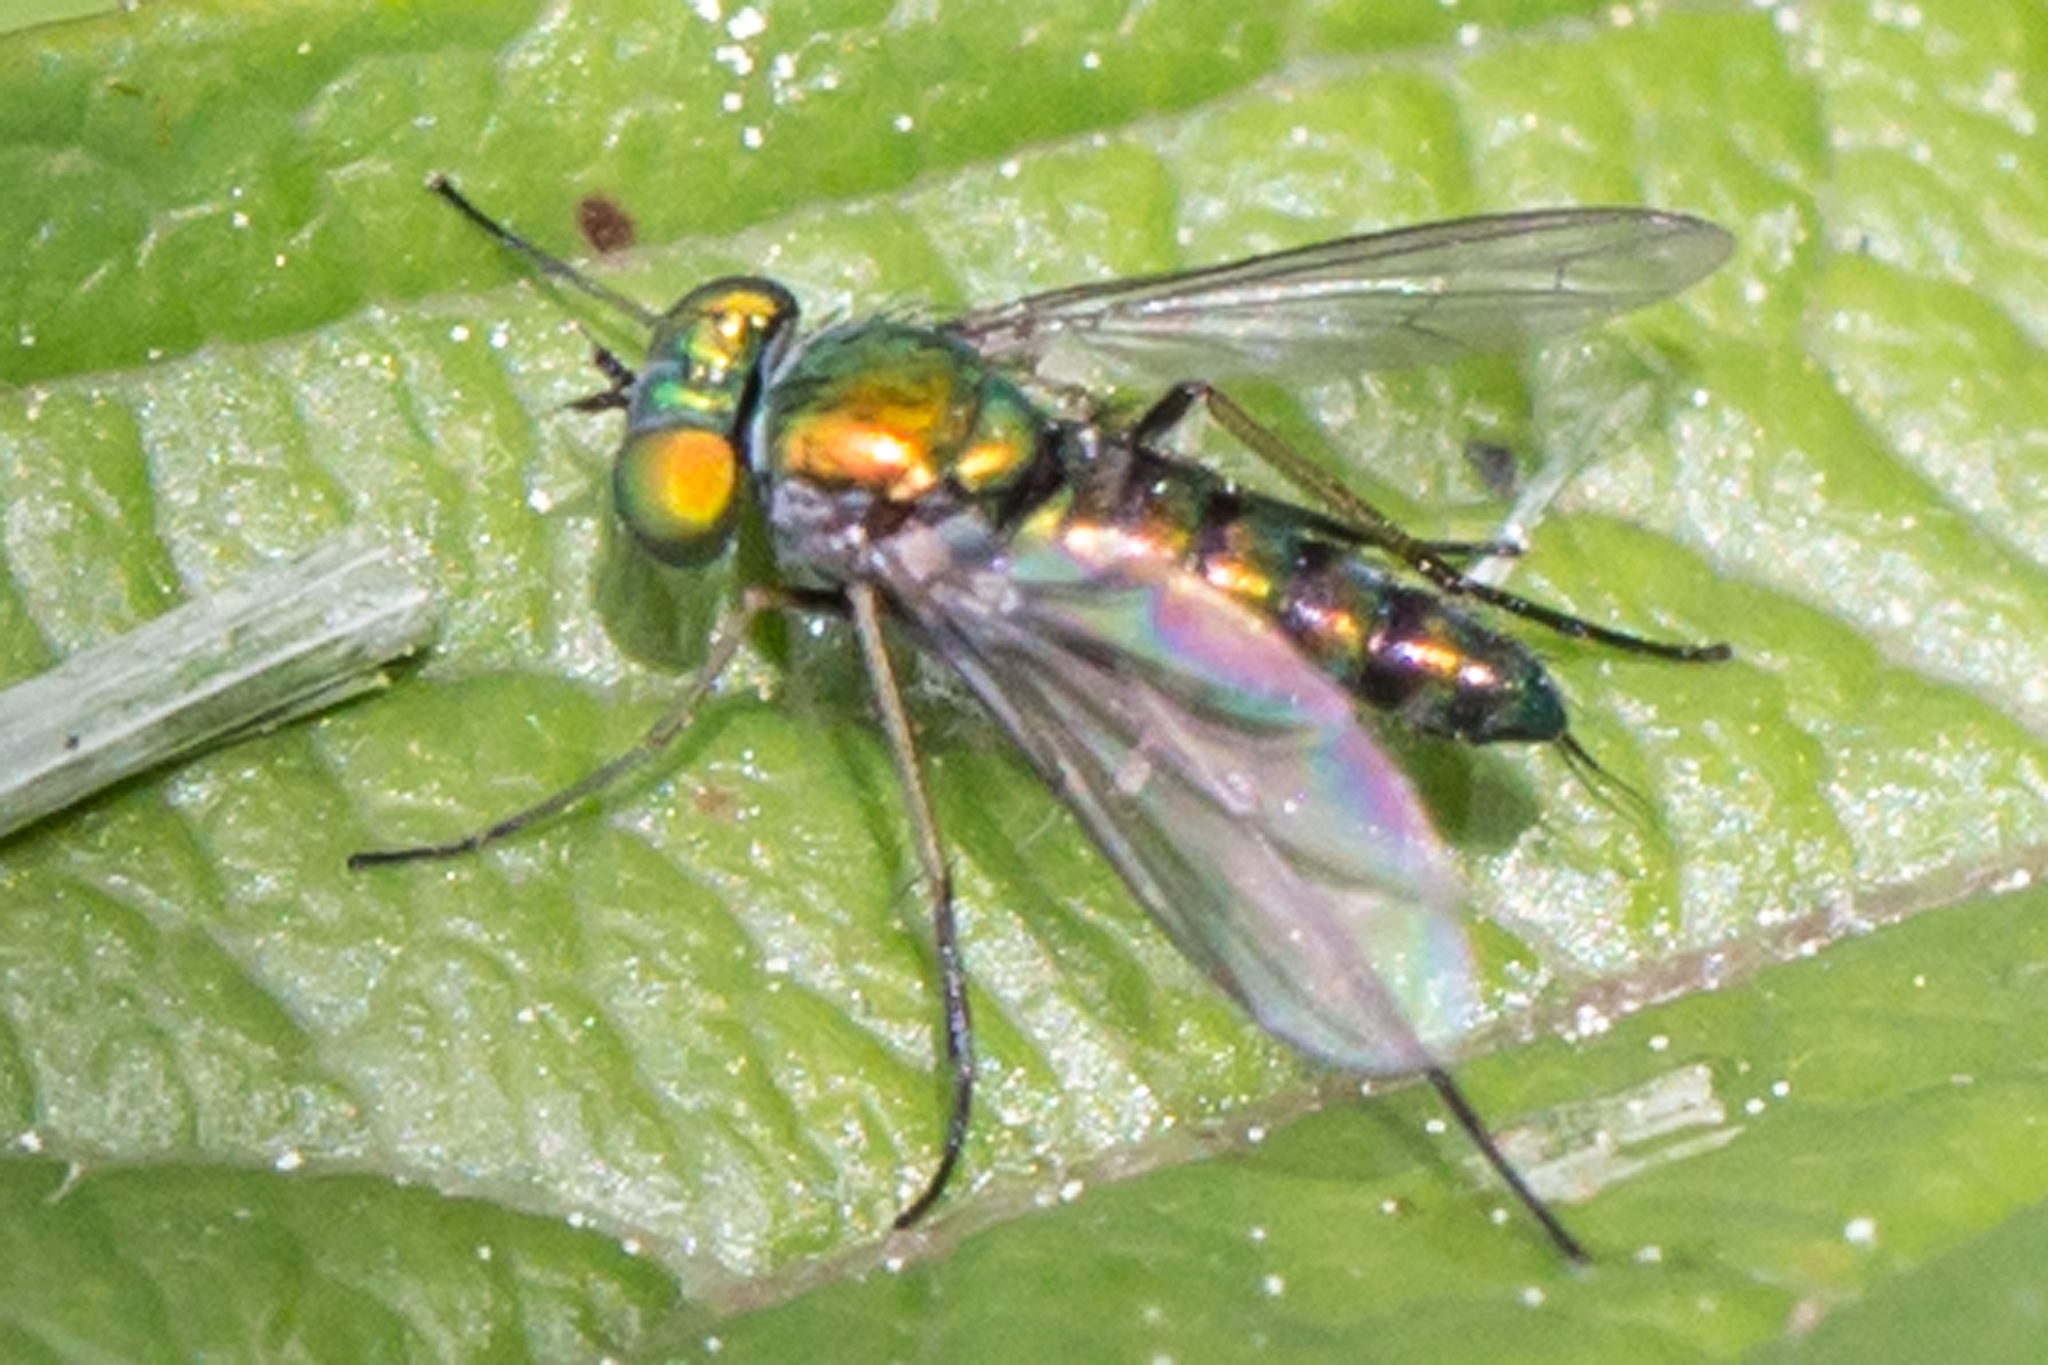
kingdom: Animalia
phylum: Arthropoda
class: Insecta
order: Diptera
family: Dolichopodidae
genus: Condylostylus
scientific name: Condylostylus caudatus
